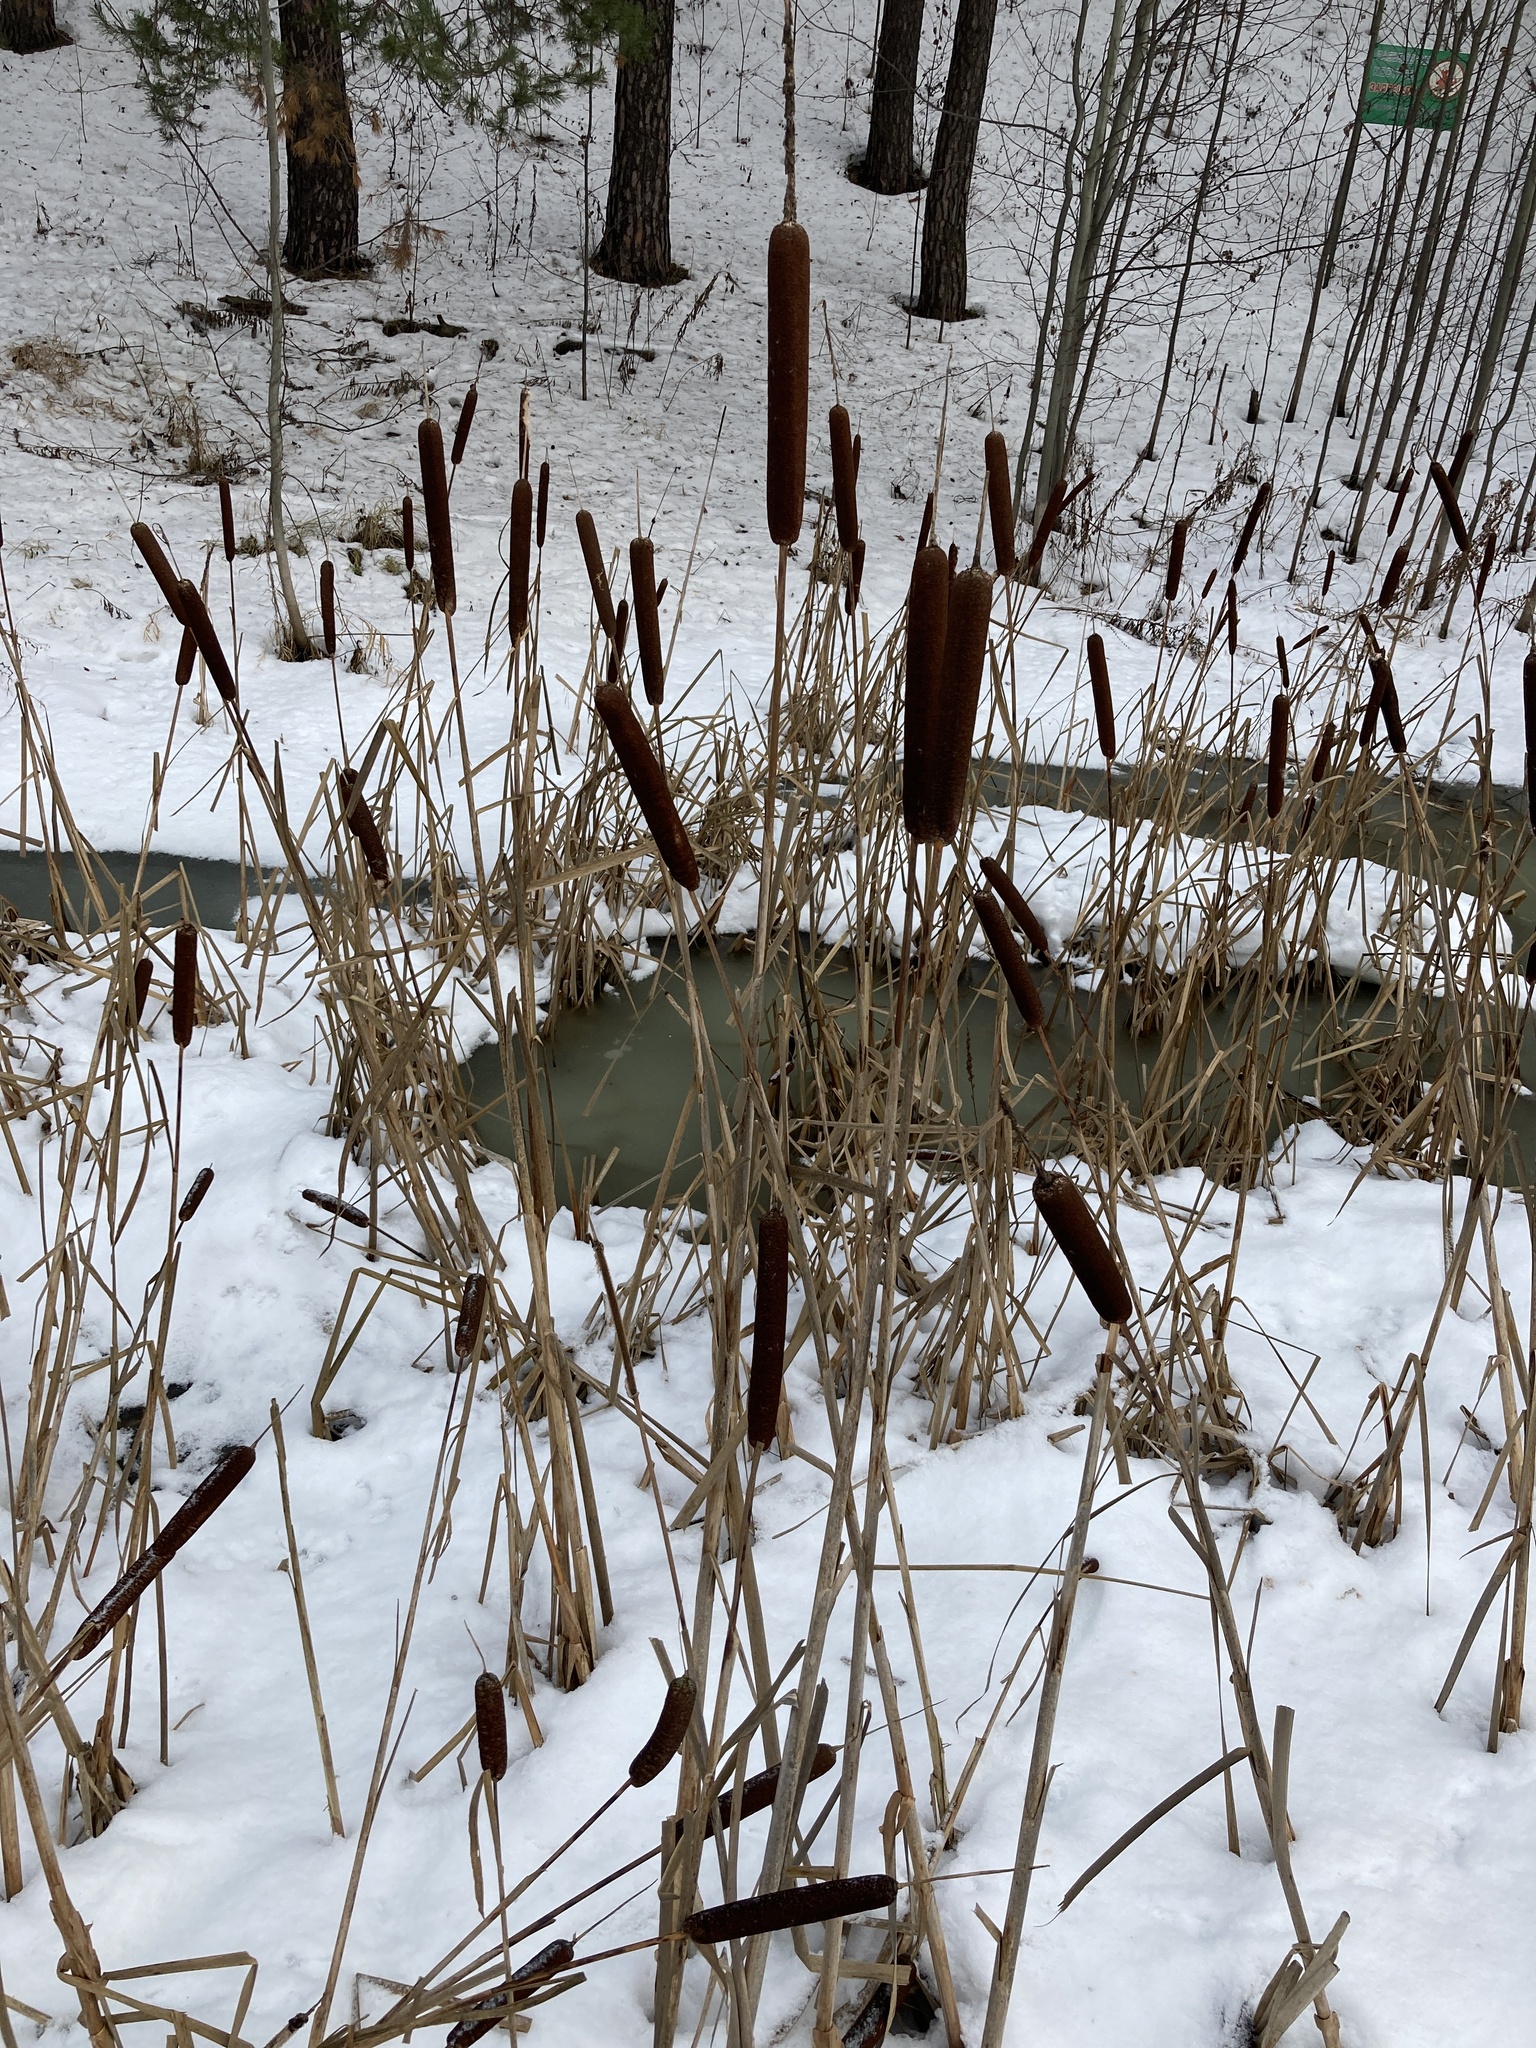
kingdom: Plantae
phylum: Tracheophyta
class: Liliopsida
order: Poales
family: Typhaceae
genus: Typha
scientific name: Typha latifolia
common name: Broadleaf cattail
